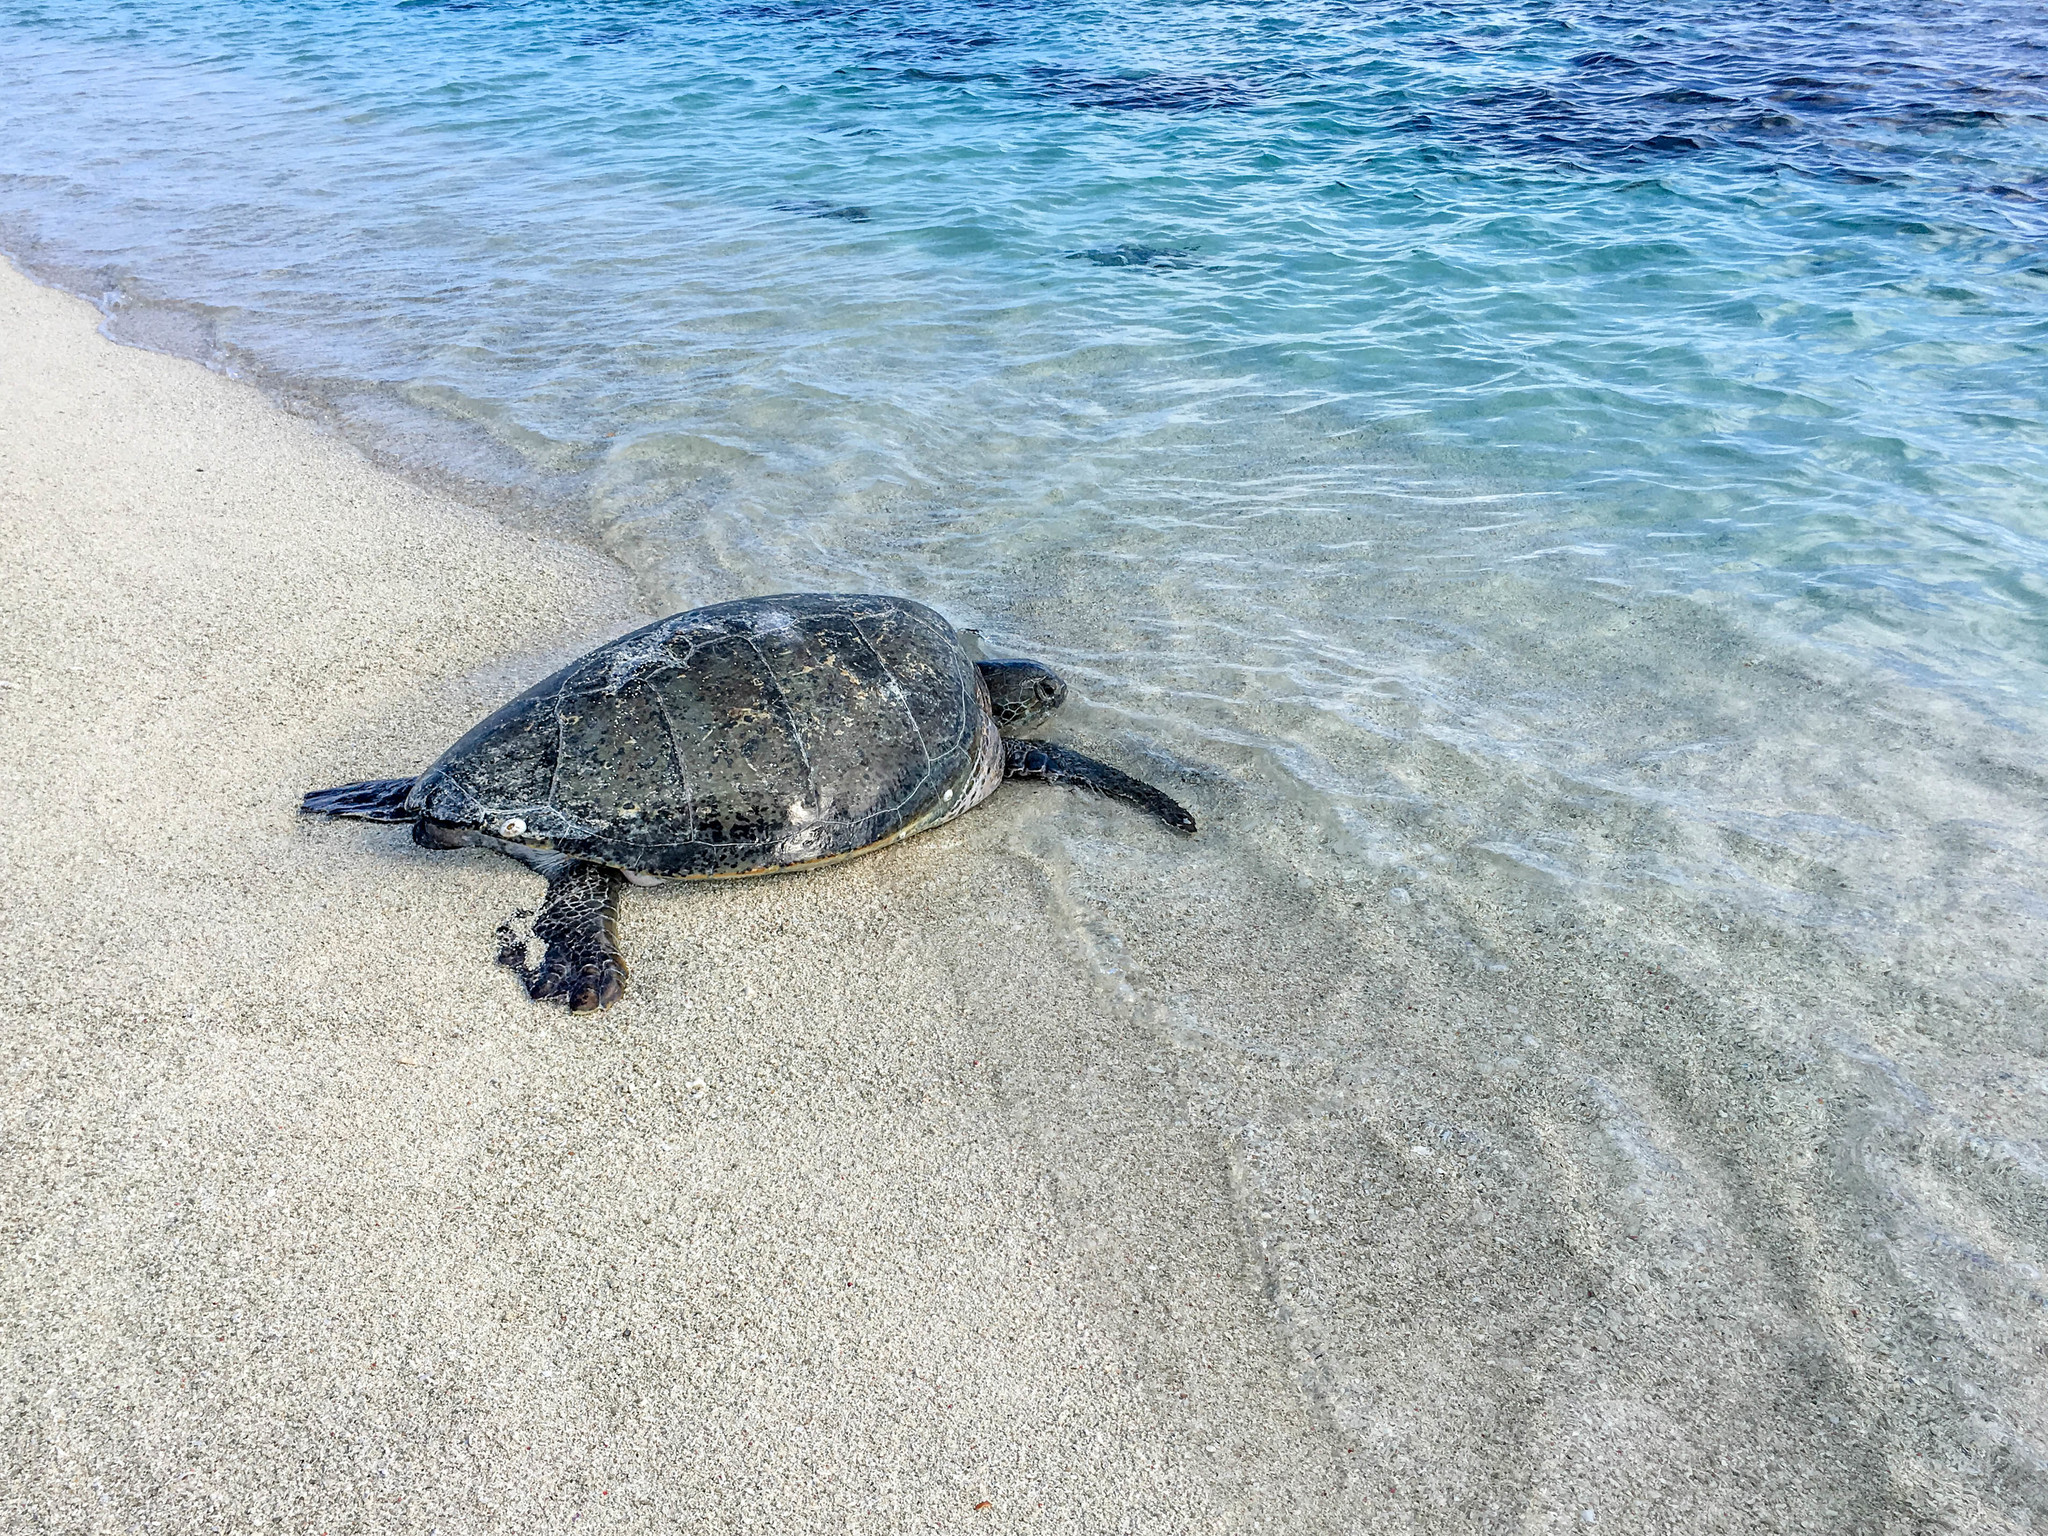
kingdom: Animalia
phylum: Chordata
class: Testudines
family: Cheloniidae
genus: Chelonia
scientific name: Chelonia mydas
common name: Green turtle
